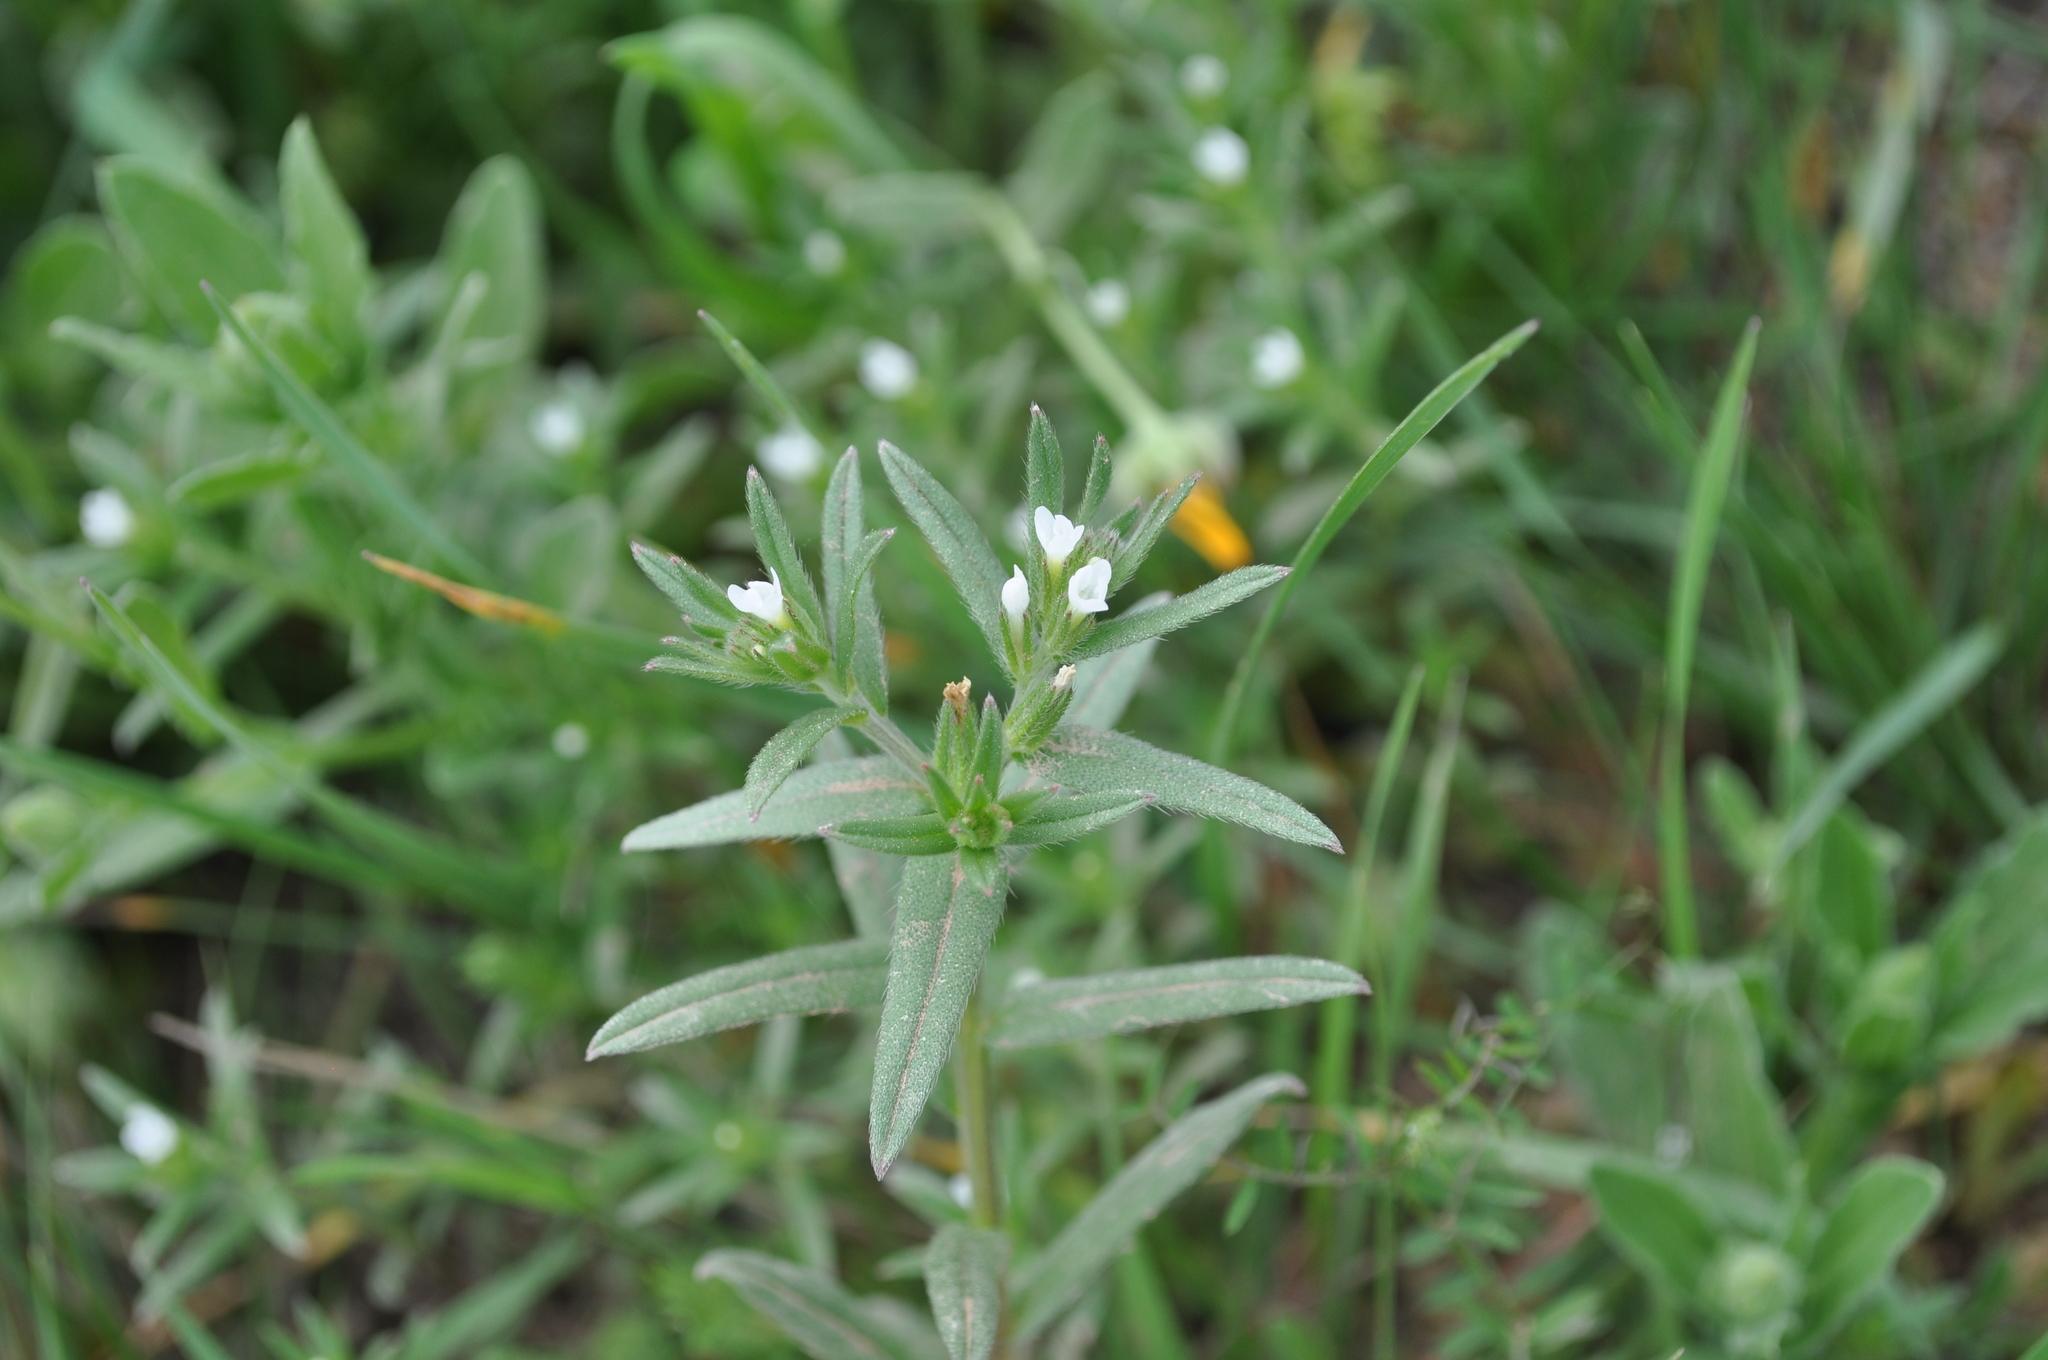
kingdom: Plantae
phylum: Tracheophyta
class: Magnoliopsida
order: Boraginales
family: Boraginaceae
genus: Buglossoides
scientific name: Buglossoides arvensis
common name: Corn gromwell
